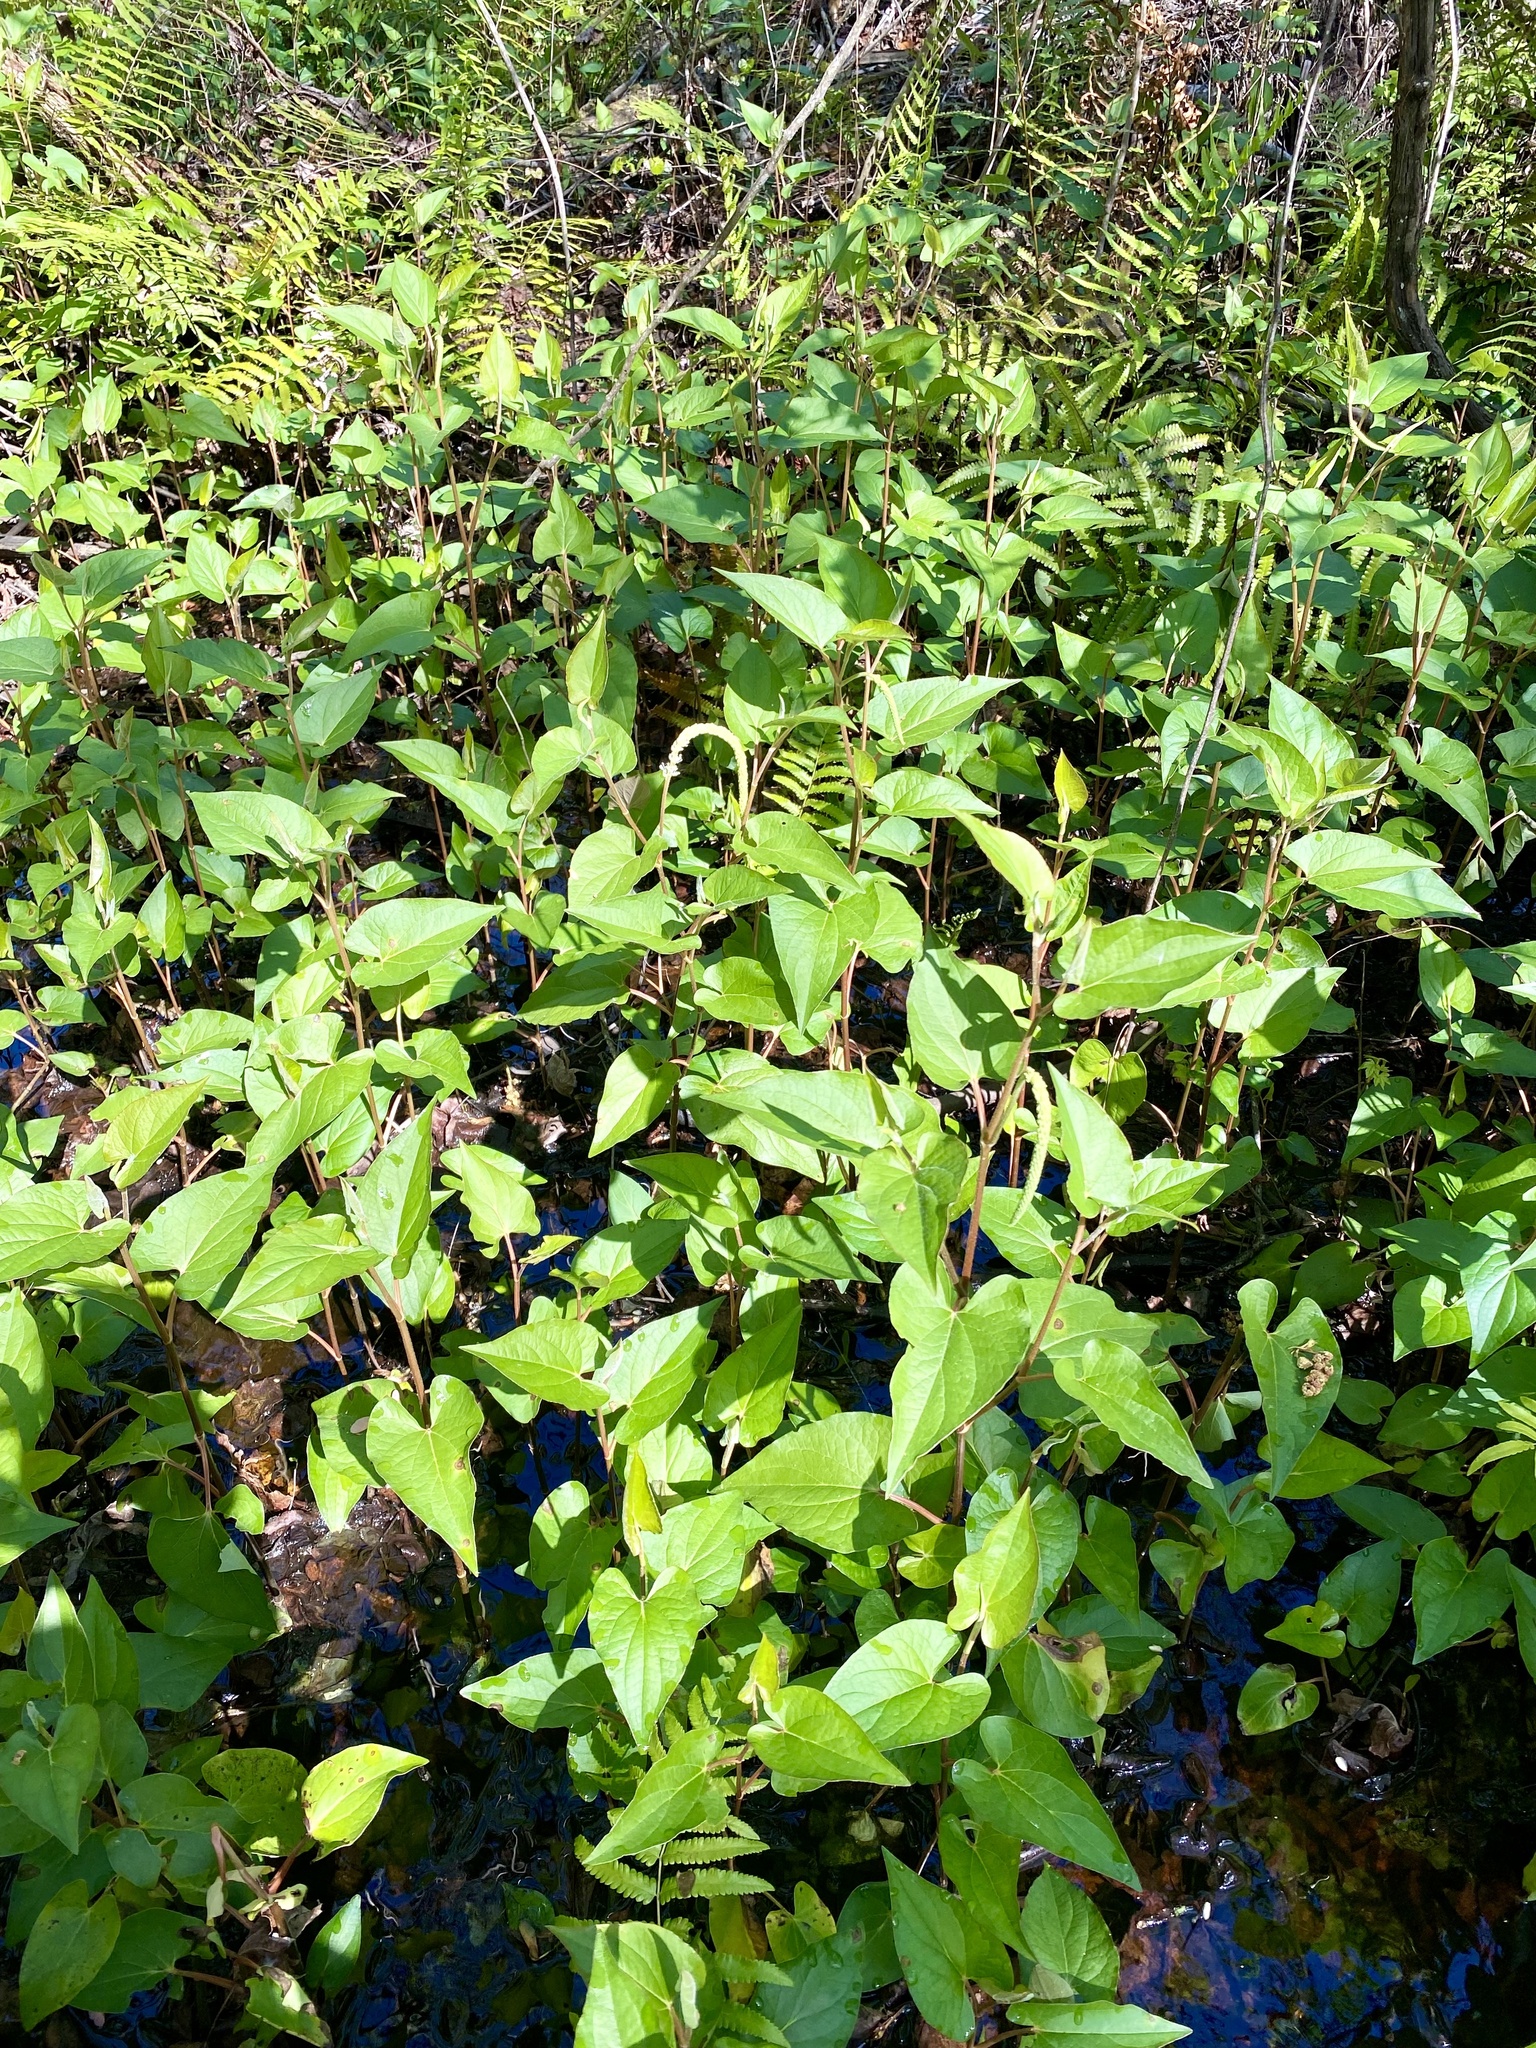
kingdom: Plantae
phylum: Tracheophyta
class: Magnoliopsida
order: Piperales
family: Saururaceae
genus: Saururus
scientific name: Saururus cernuus
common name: Lizard's-tail
